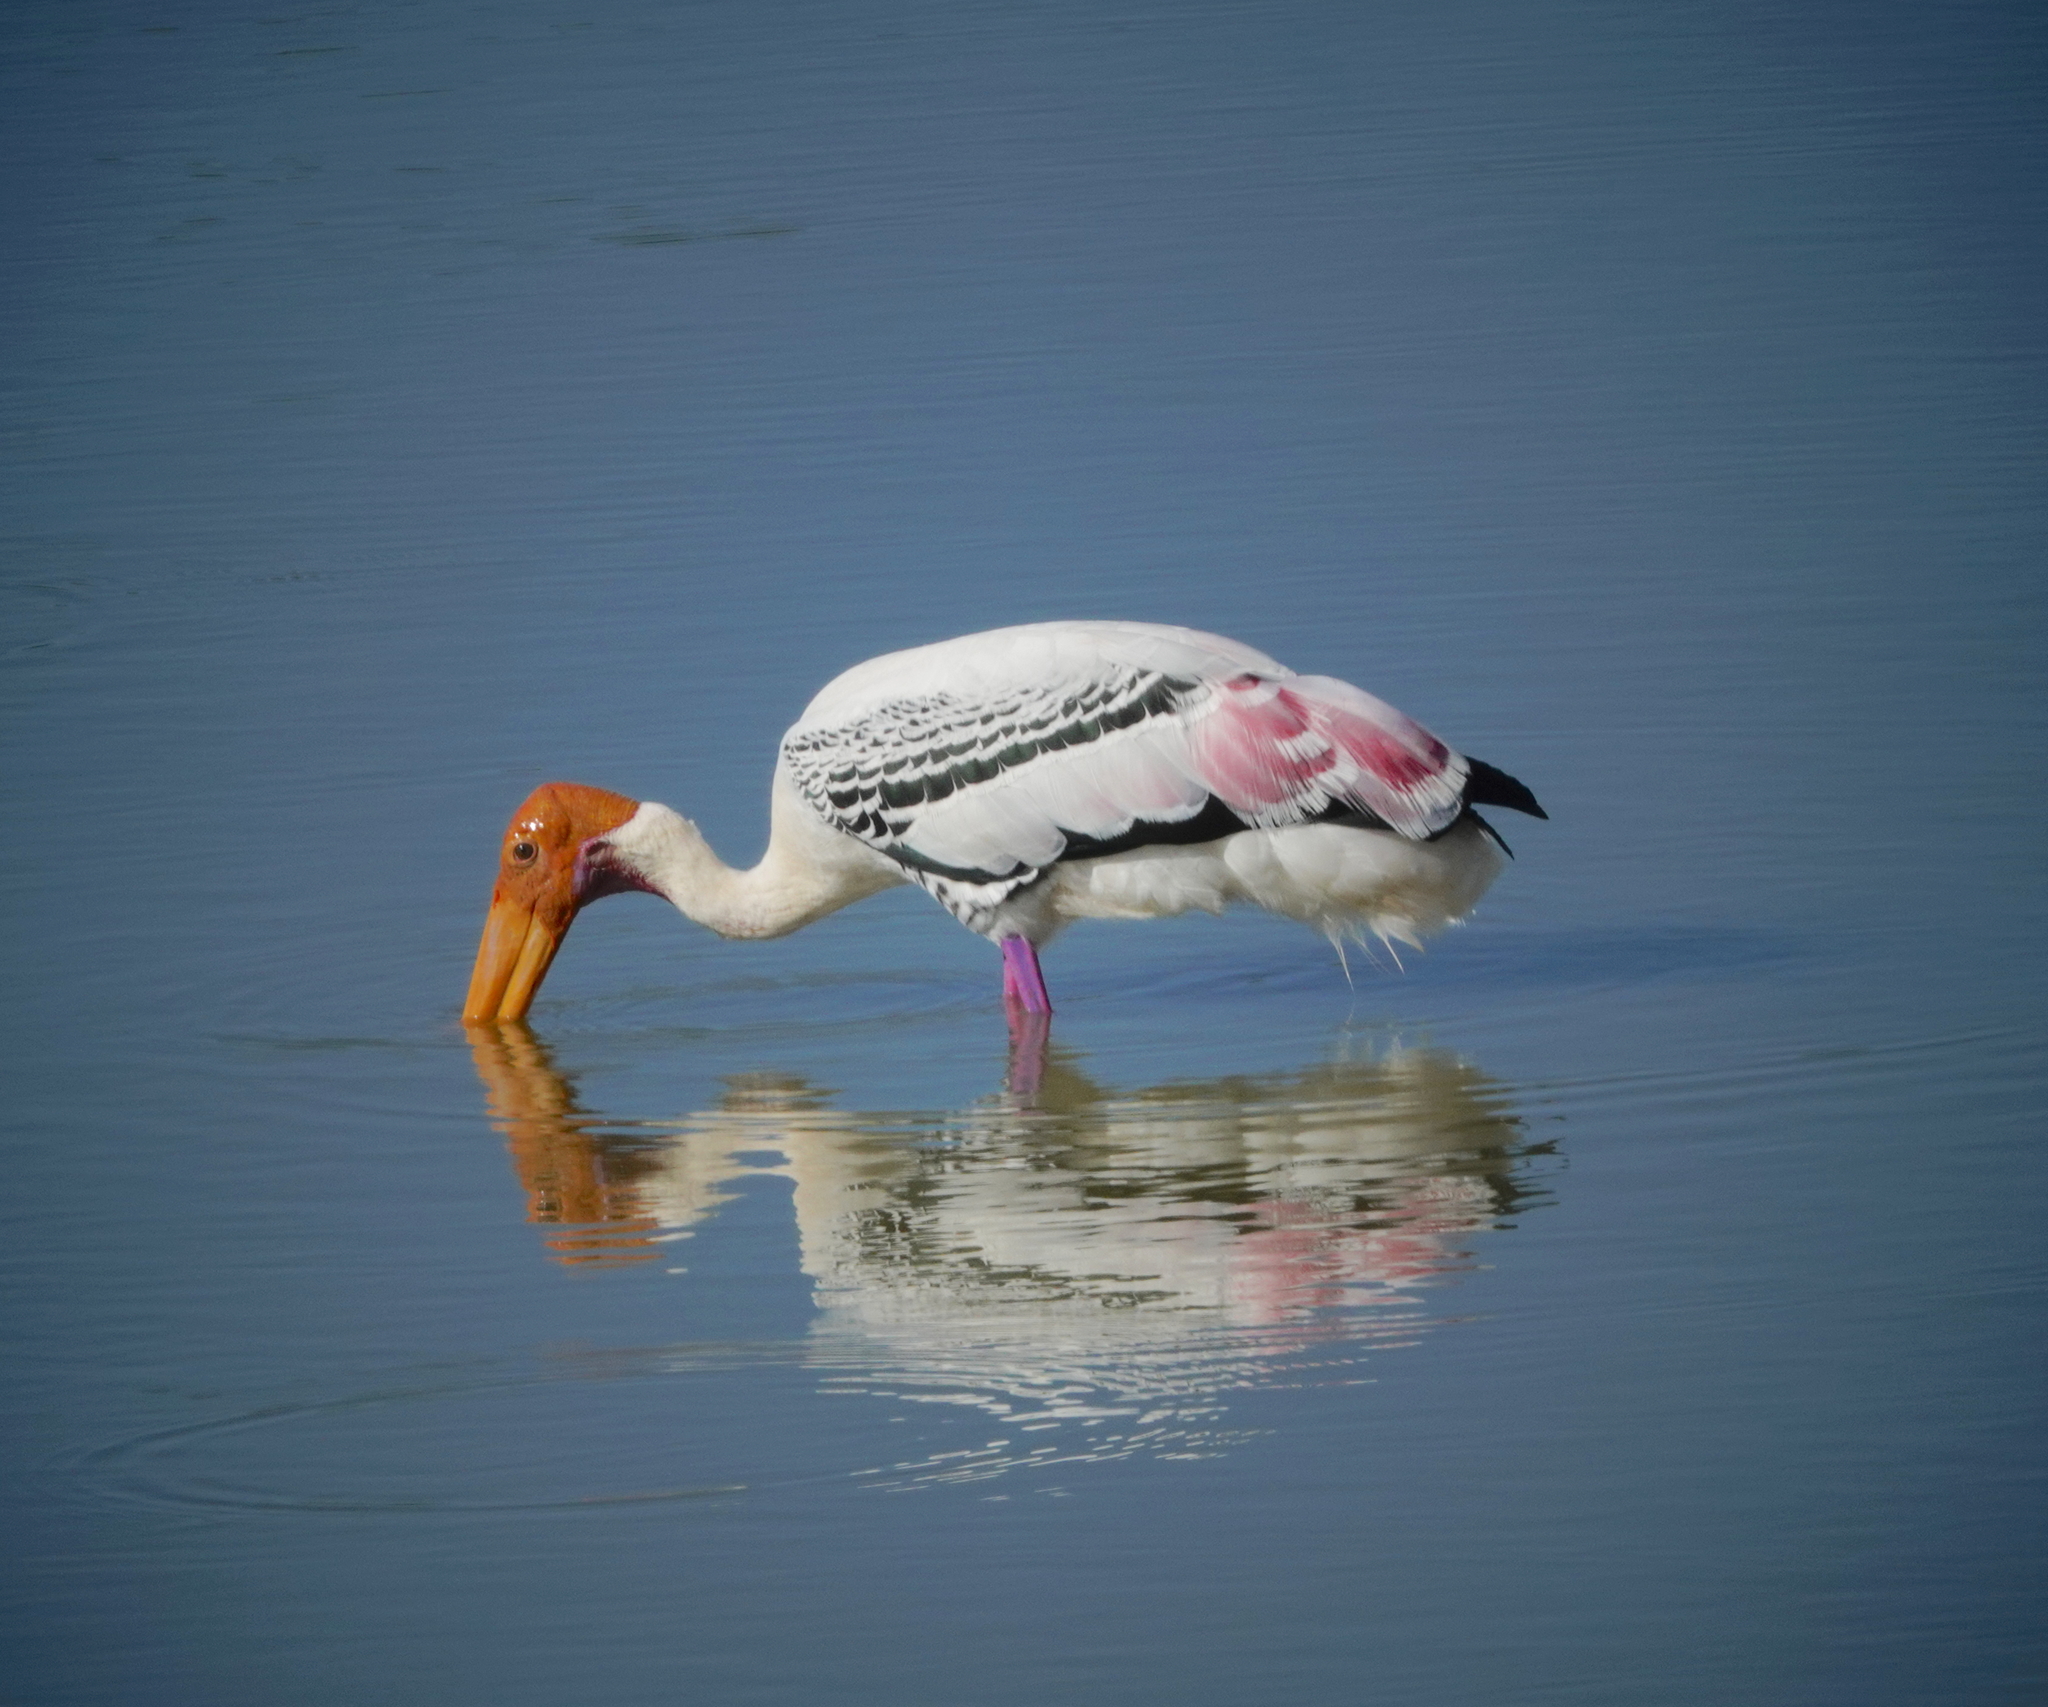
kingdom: Animalia
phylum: Chordata
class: Aves
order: Ciconiiformes
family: Ciconiidae
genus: Mycteria
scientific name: Mycteria leucocephala
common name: Painted stork
